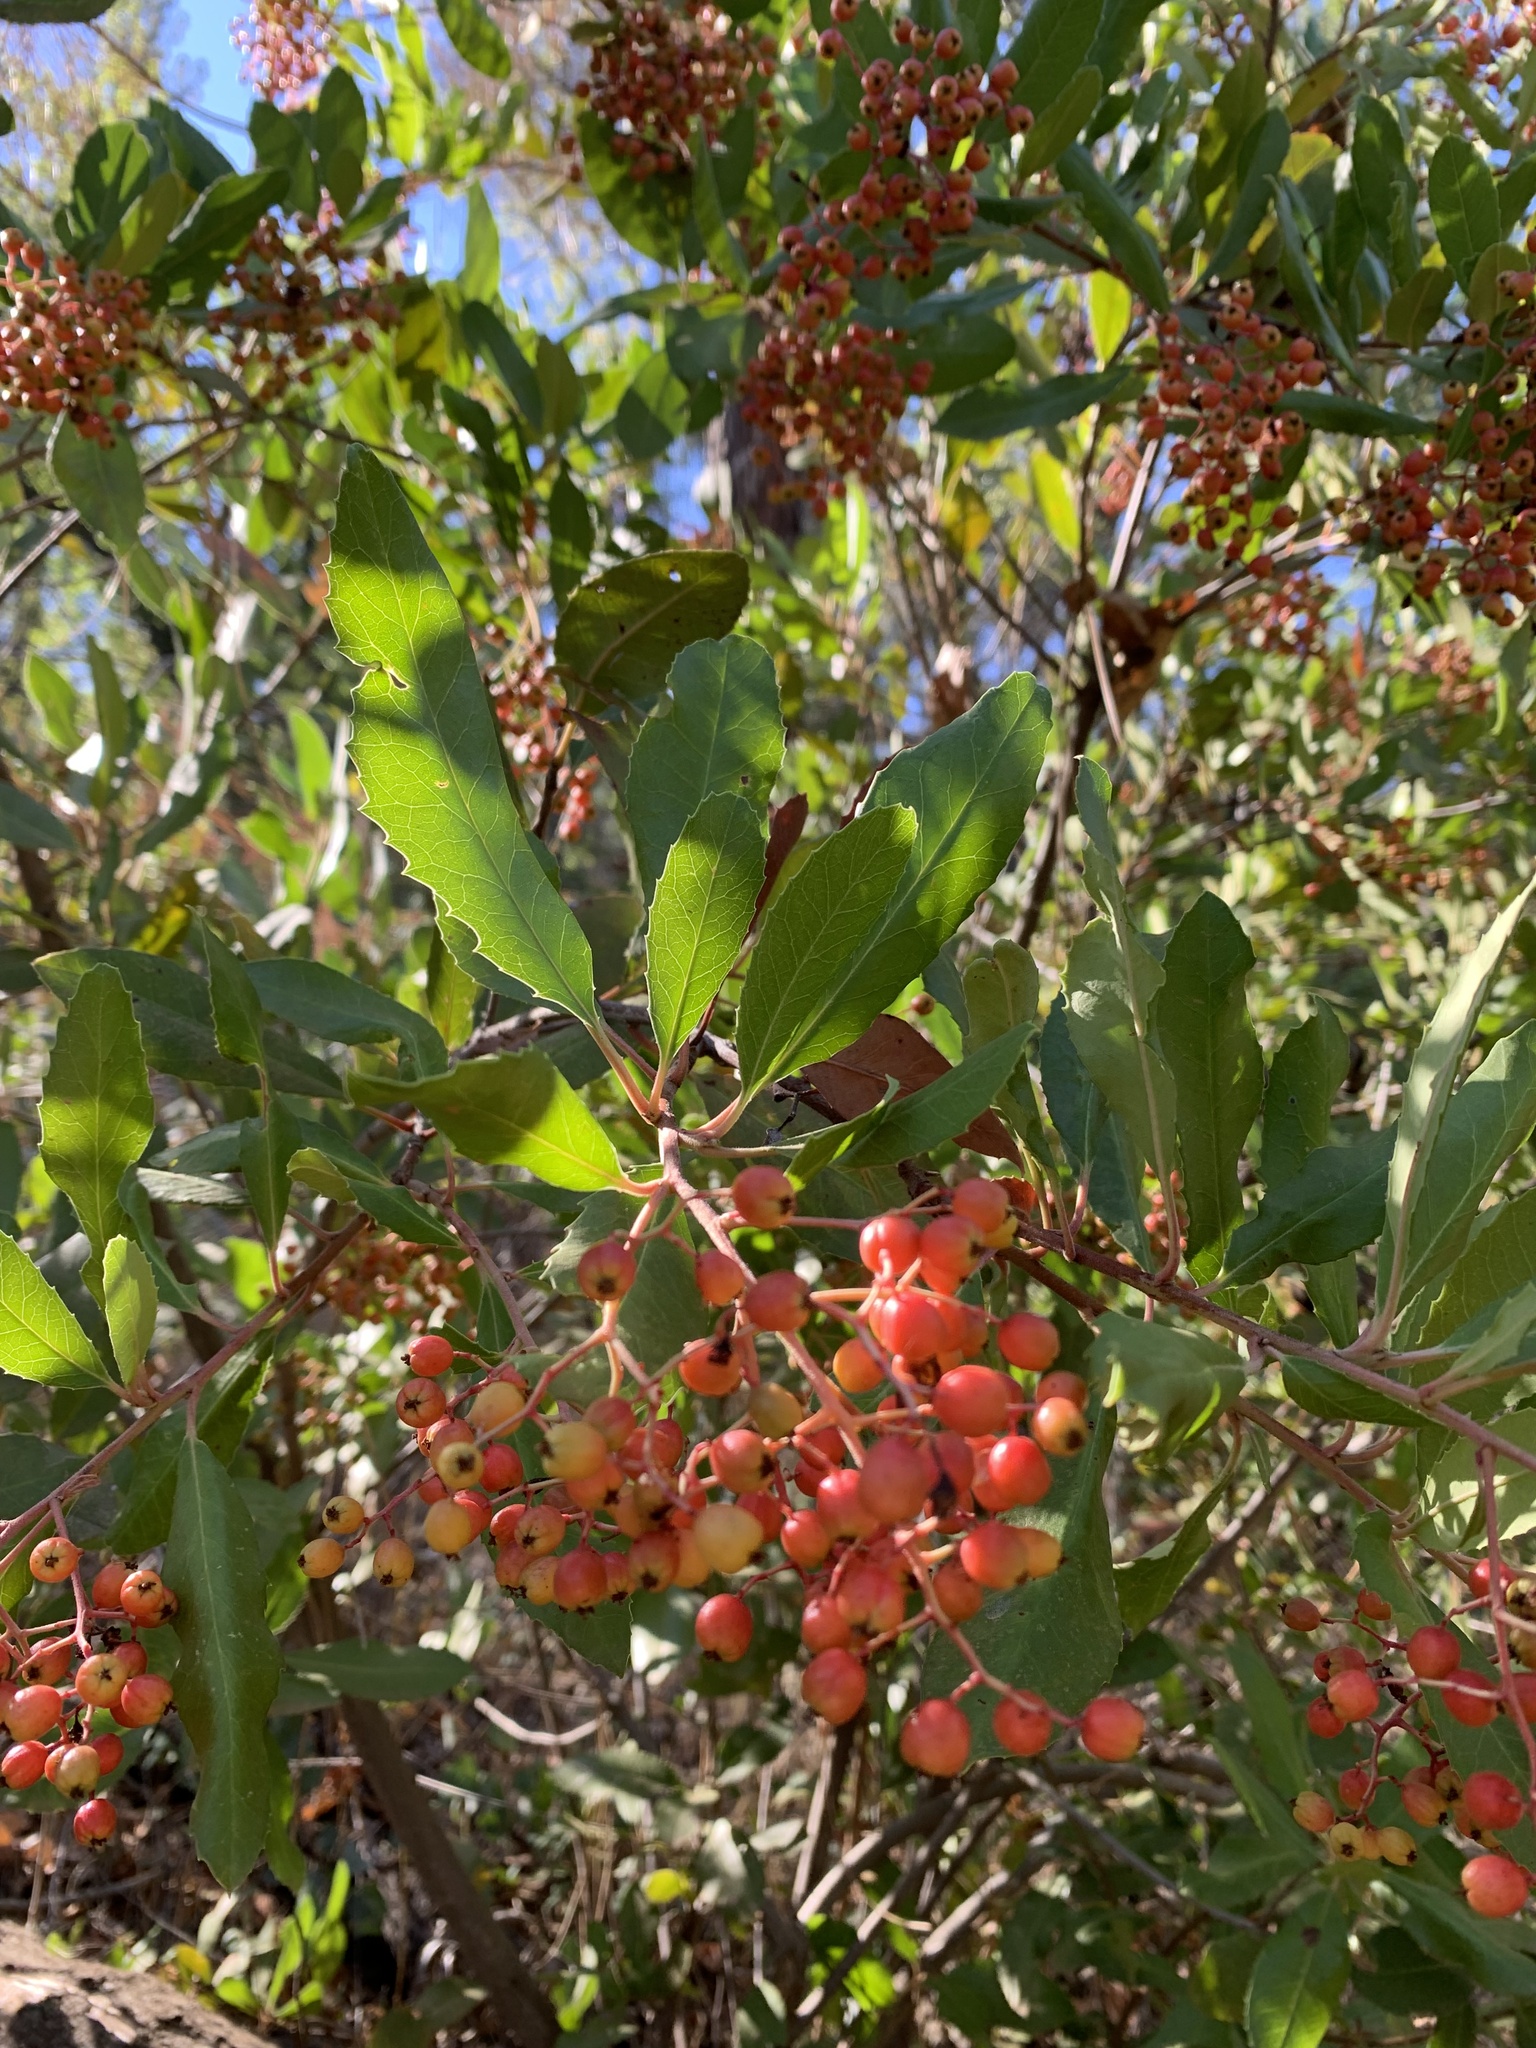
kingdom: Plantae
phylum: Tracheophyta
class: Magnoliopsida
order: Rosales
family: Rosaceae
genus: Heteromeles
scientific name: Heteromeles arbutifolia
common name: California-holly
